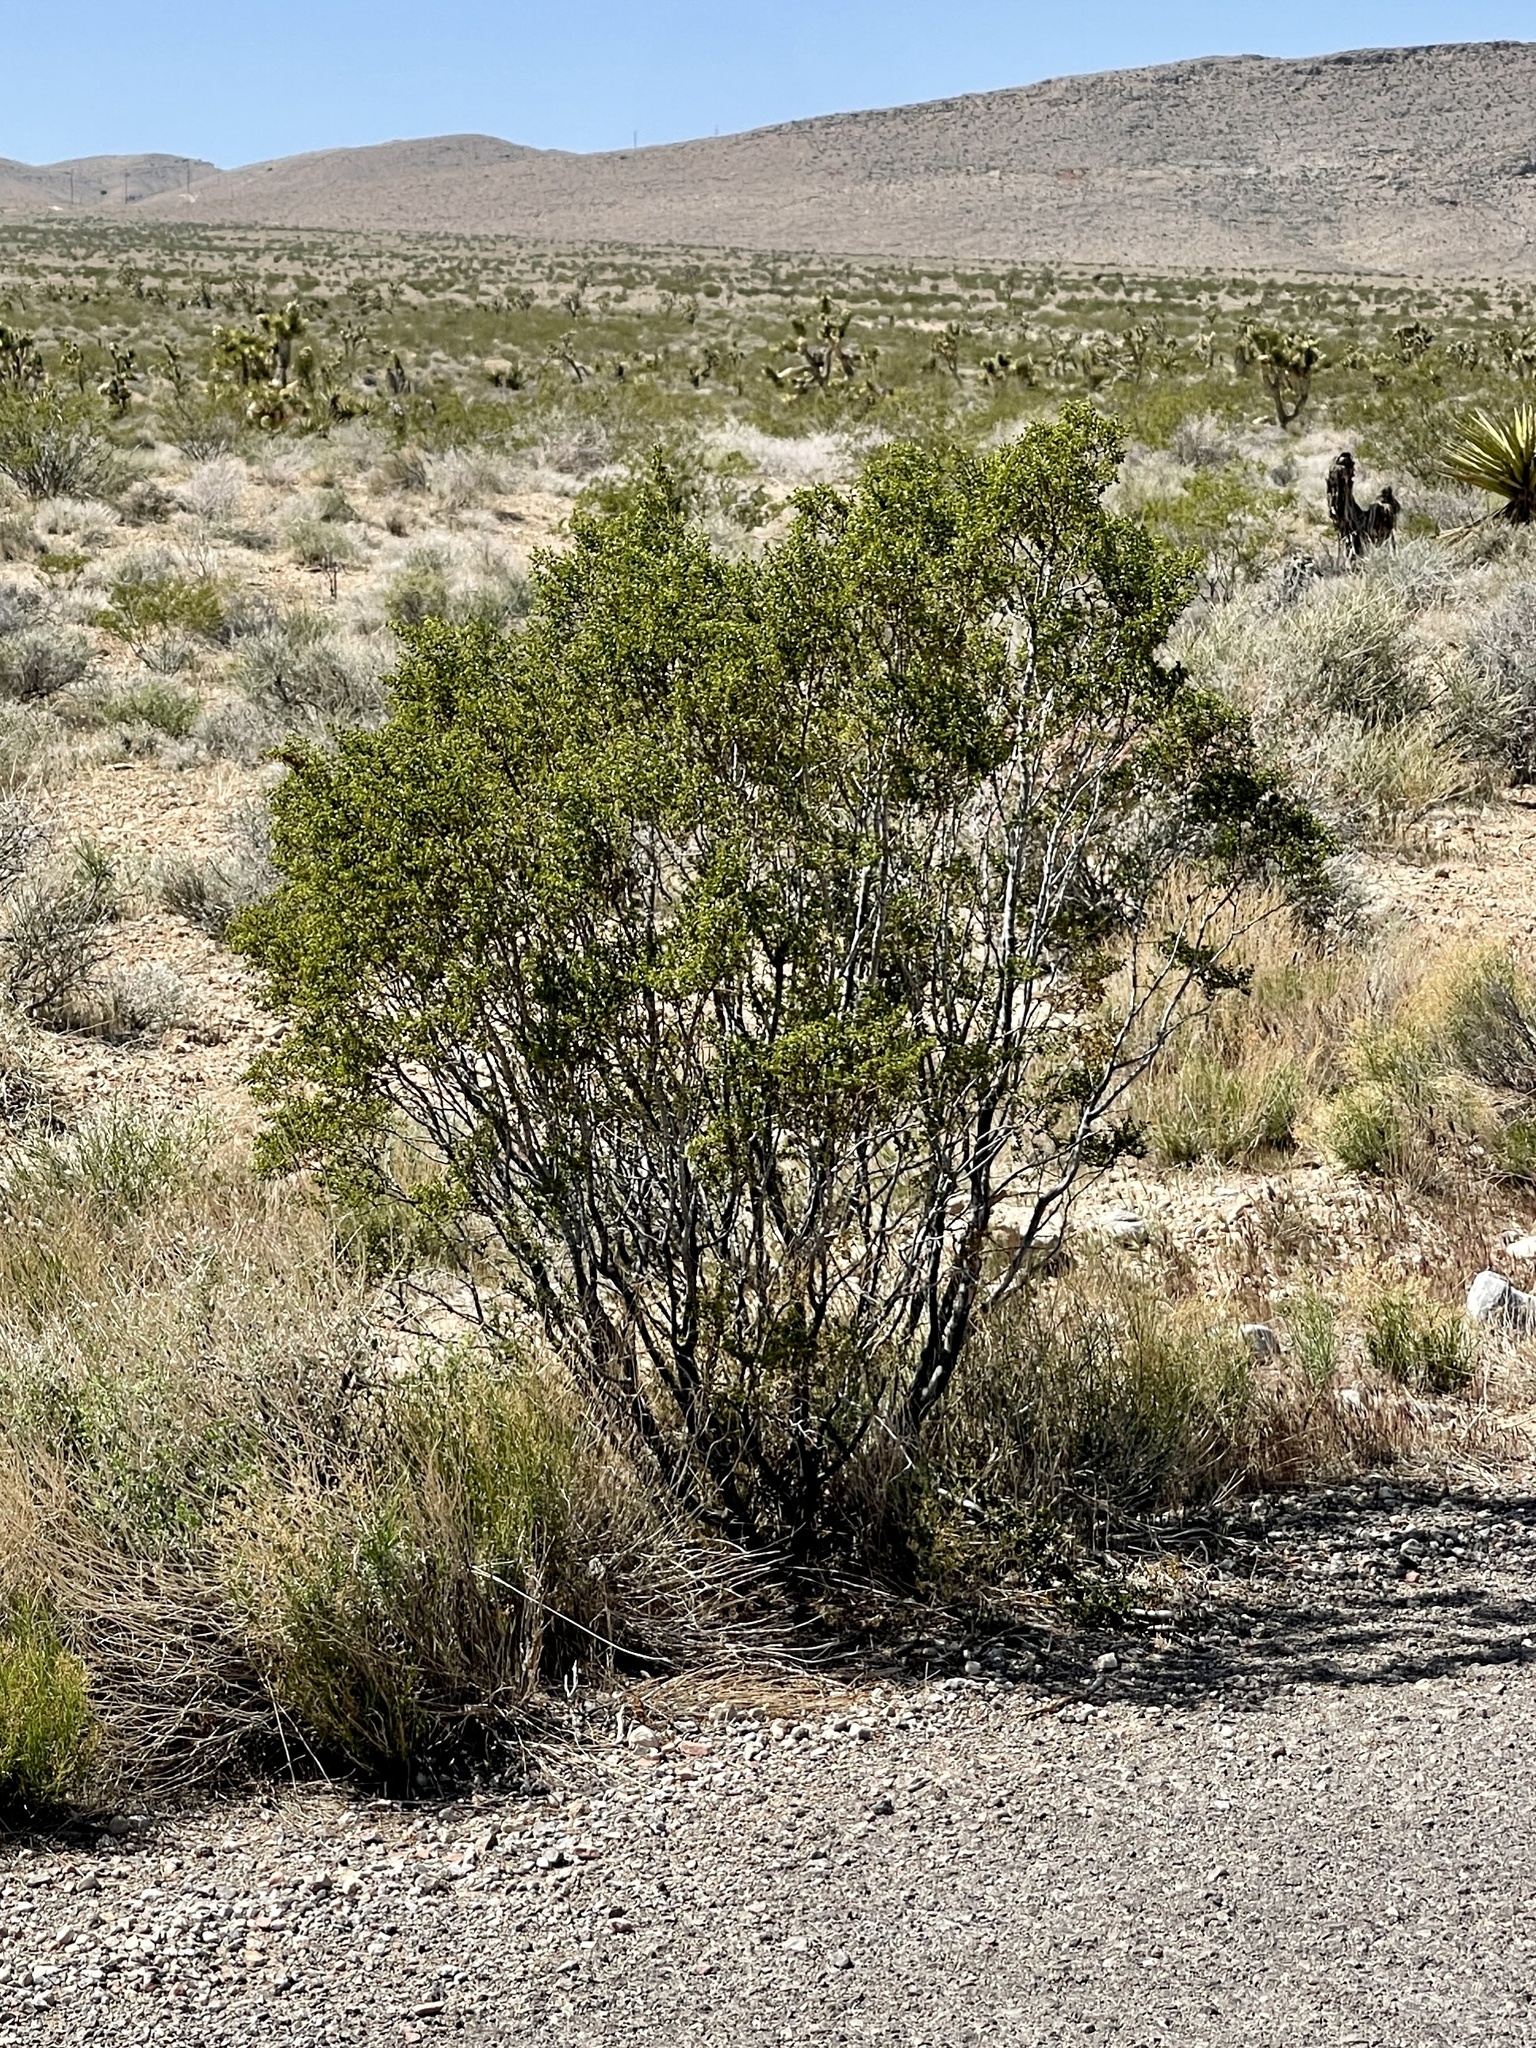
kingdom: Plantae
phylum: Tracheophyta
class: Magnoliopsida
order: Zygophyllales
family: Zygophyllaceae
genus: Larrea
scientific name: Larrea tridentata
